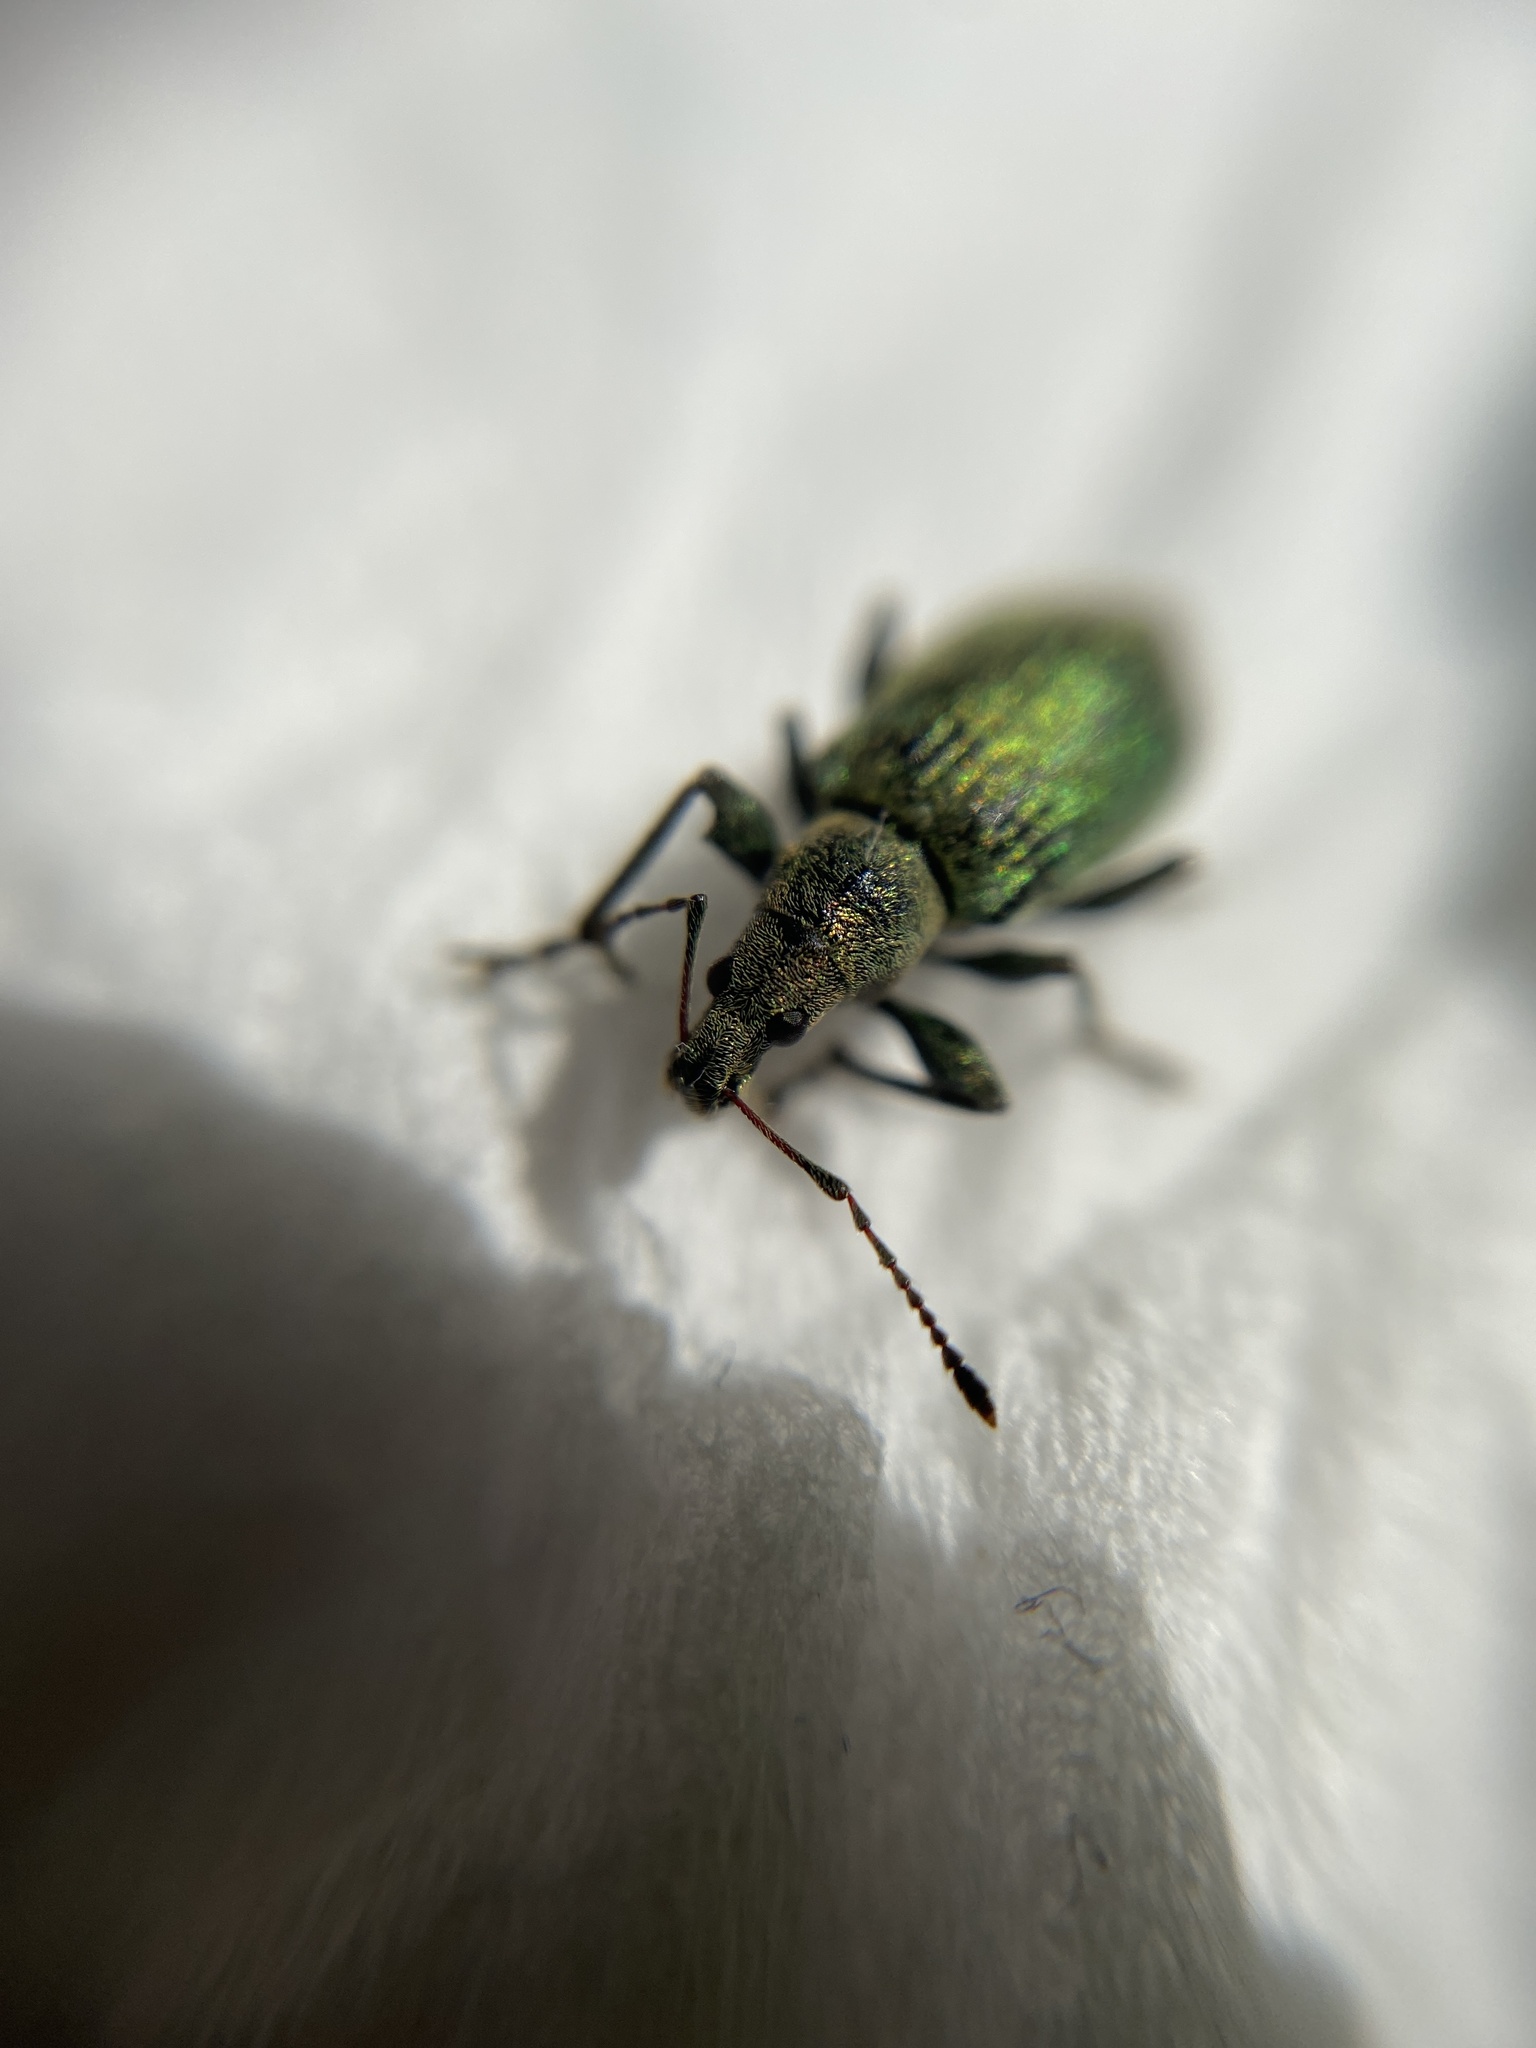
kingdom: Animalia
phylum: Arthropoda
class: Insecta
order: Coleoptera
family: Curculionidae
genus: Phyllobius
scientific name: Phyllobius pomaceus
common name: Green nettle weevil
